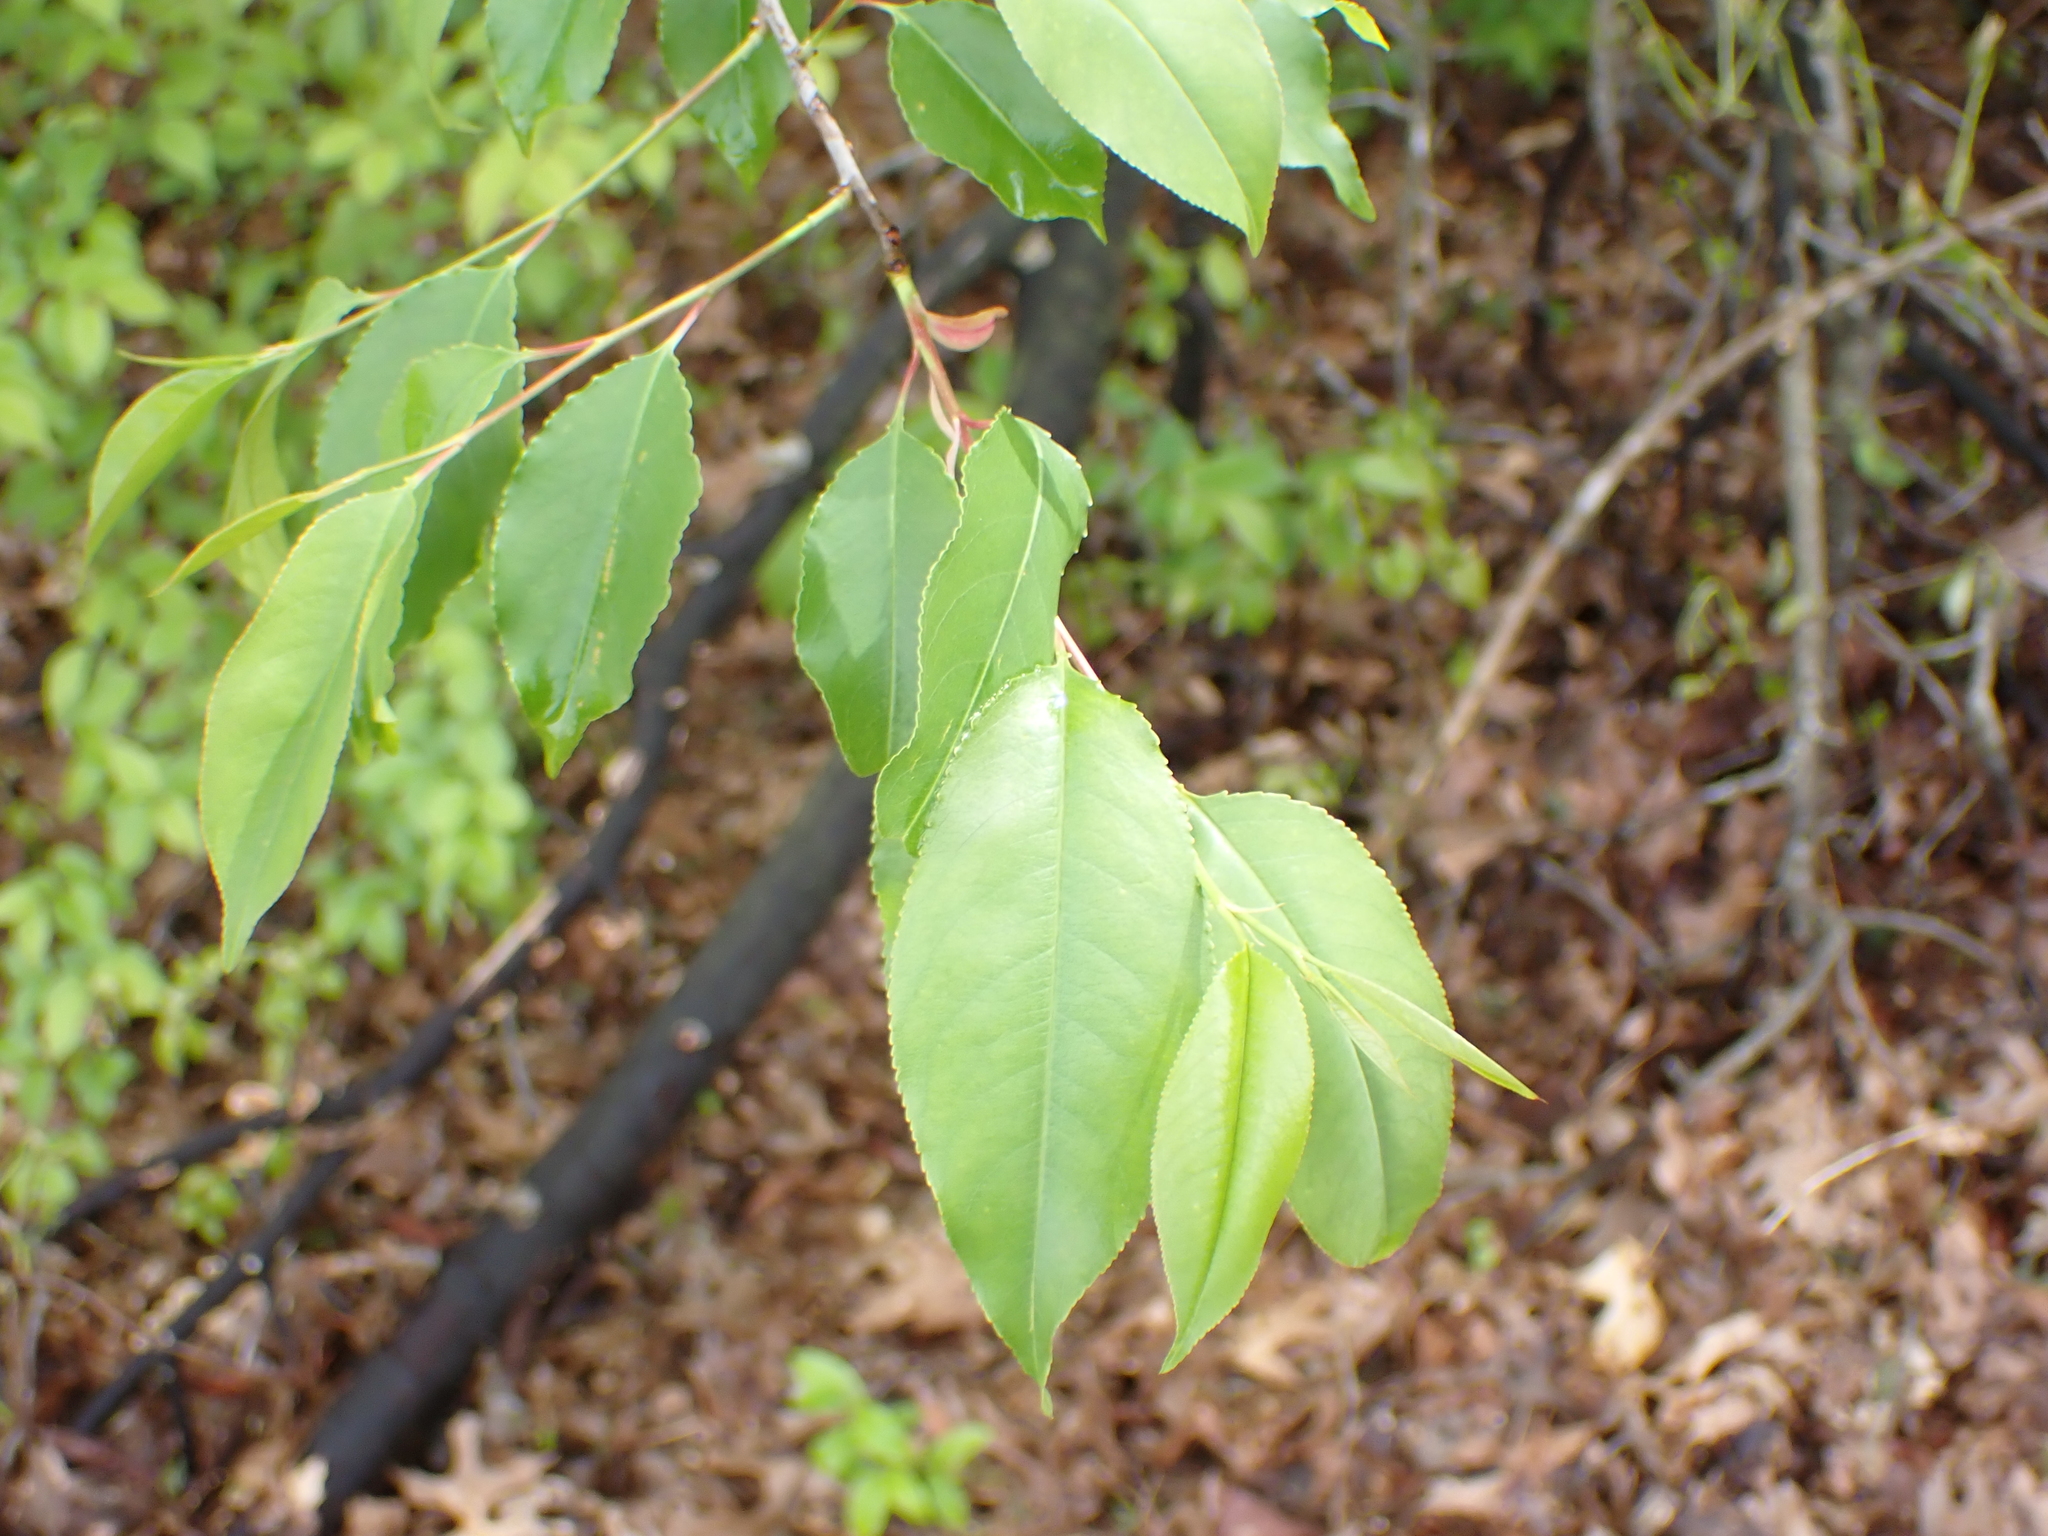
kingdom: Plantae
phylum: Tracheophyta
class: Magnoliopsida
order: Rosales
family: Rosaceae
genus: Prunus
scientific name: Prunus serotina
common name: Black cherry
